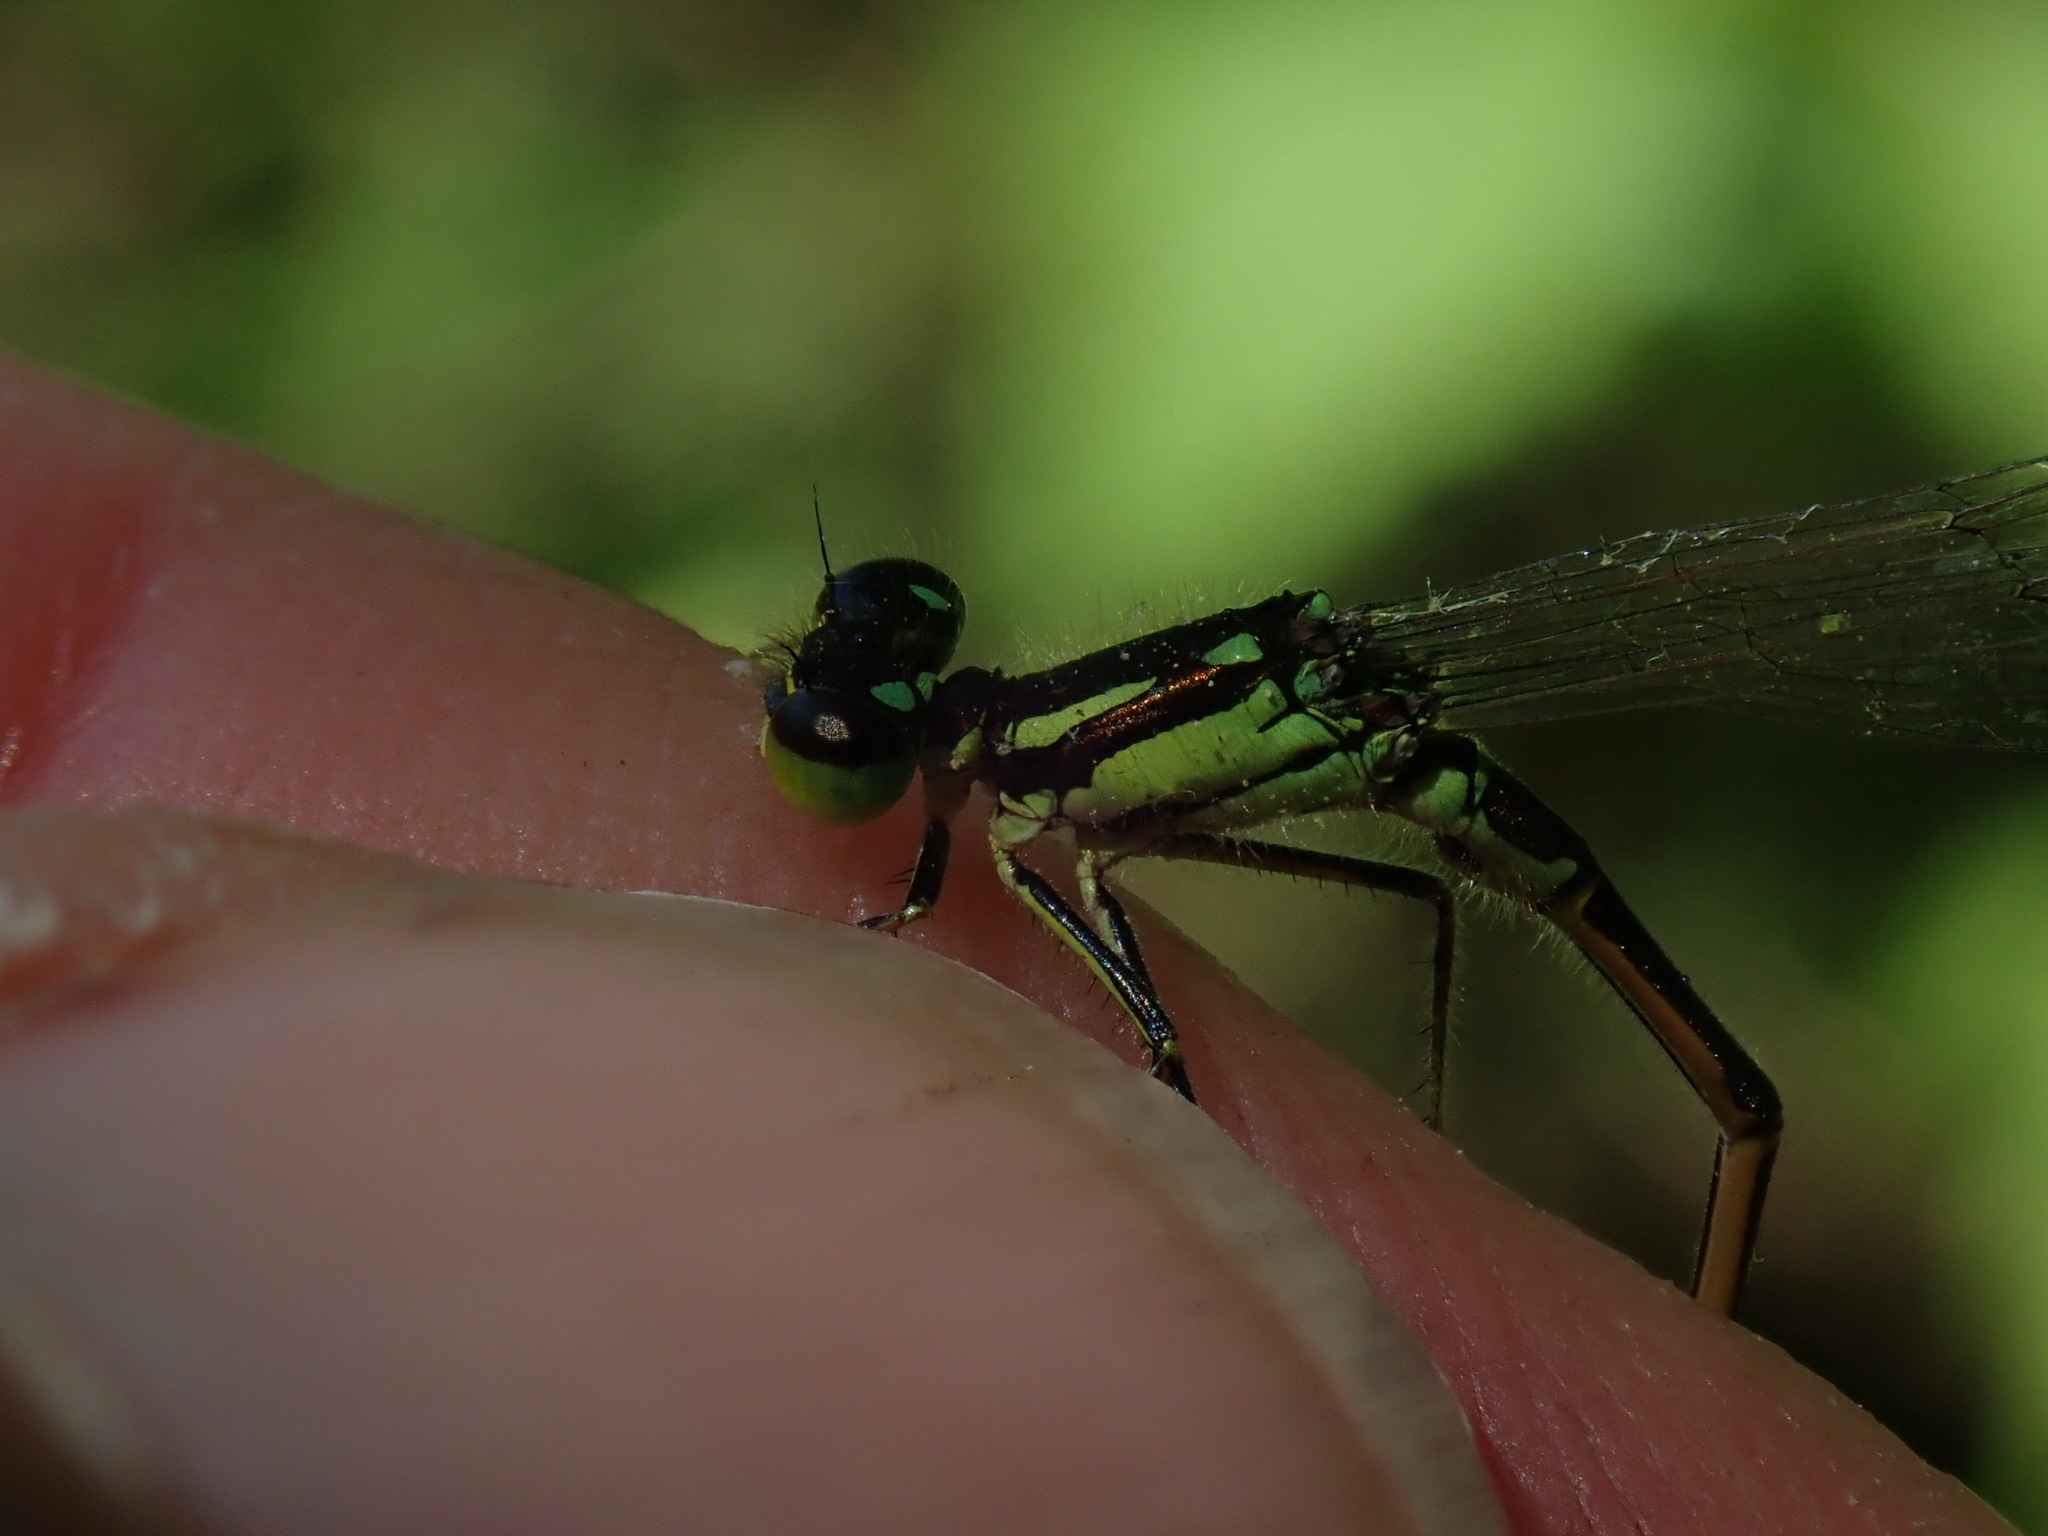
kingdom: Animalia
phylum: Arthropoda
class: Insecta
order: Odonata
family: Coenagrionidae
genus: Ischnura
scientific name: Ischnura posita
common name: Fragile forktail
